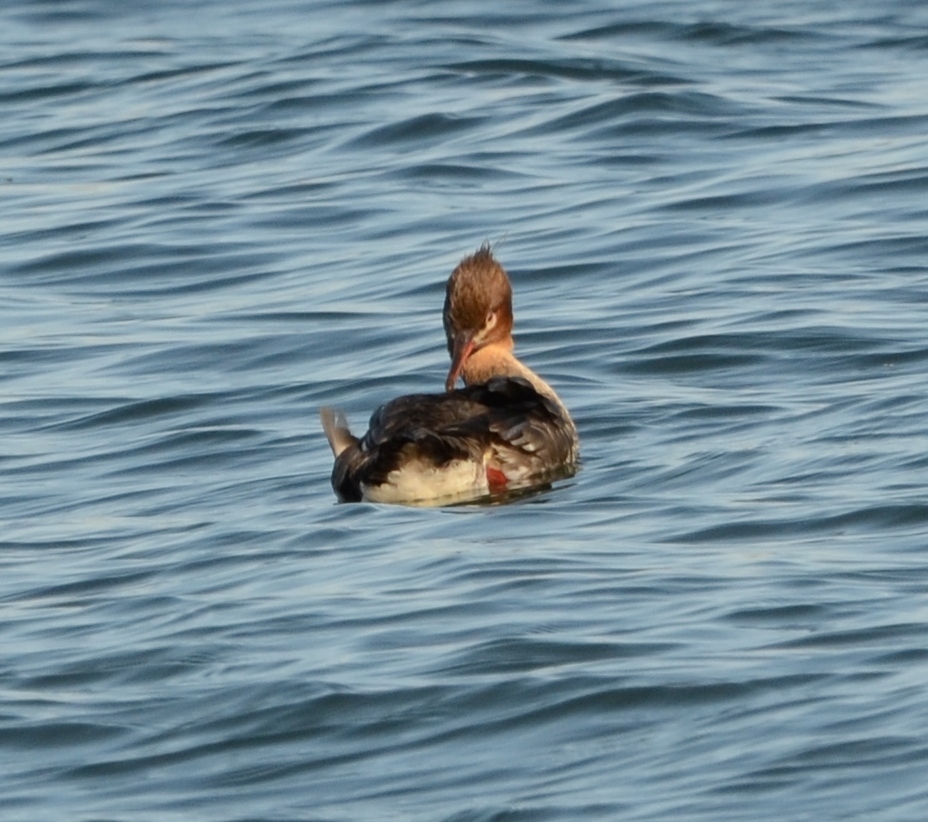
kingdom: Animalia
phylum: Chordata
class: Aves
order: Anseriformes
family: Anatidae
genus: Mergus
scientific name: Mergus serrator
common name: Red-breasted merganser
